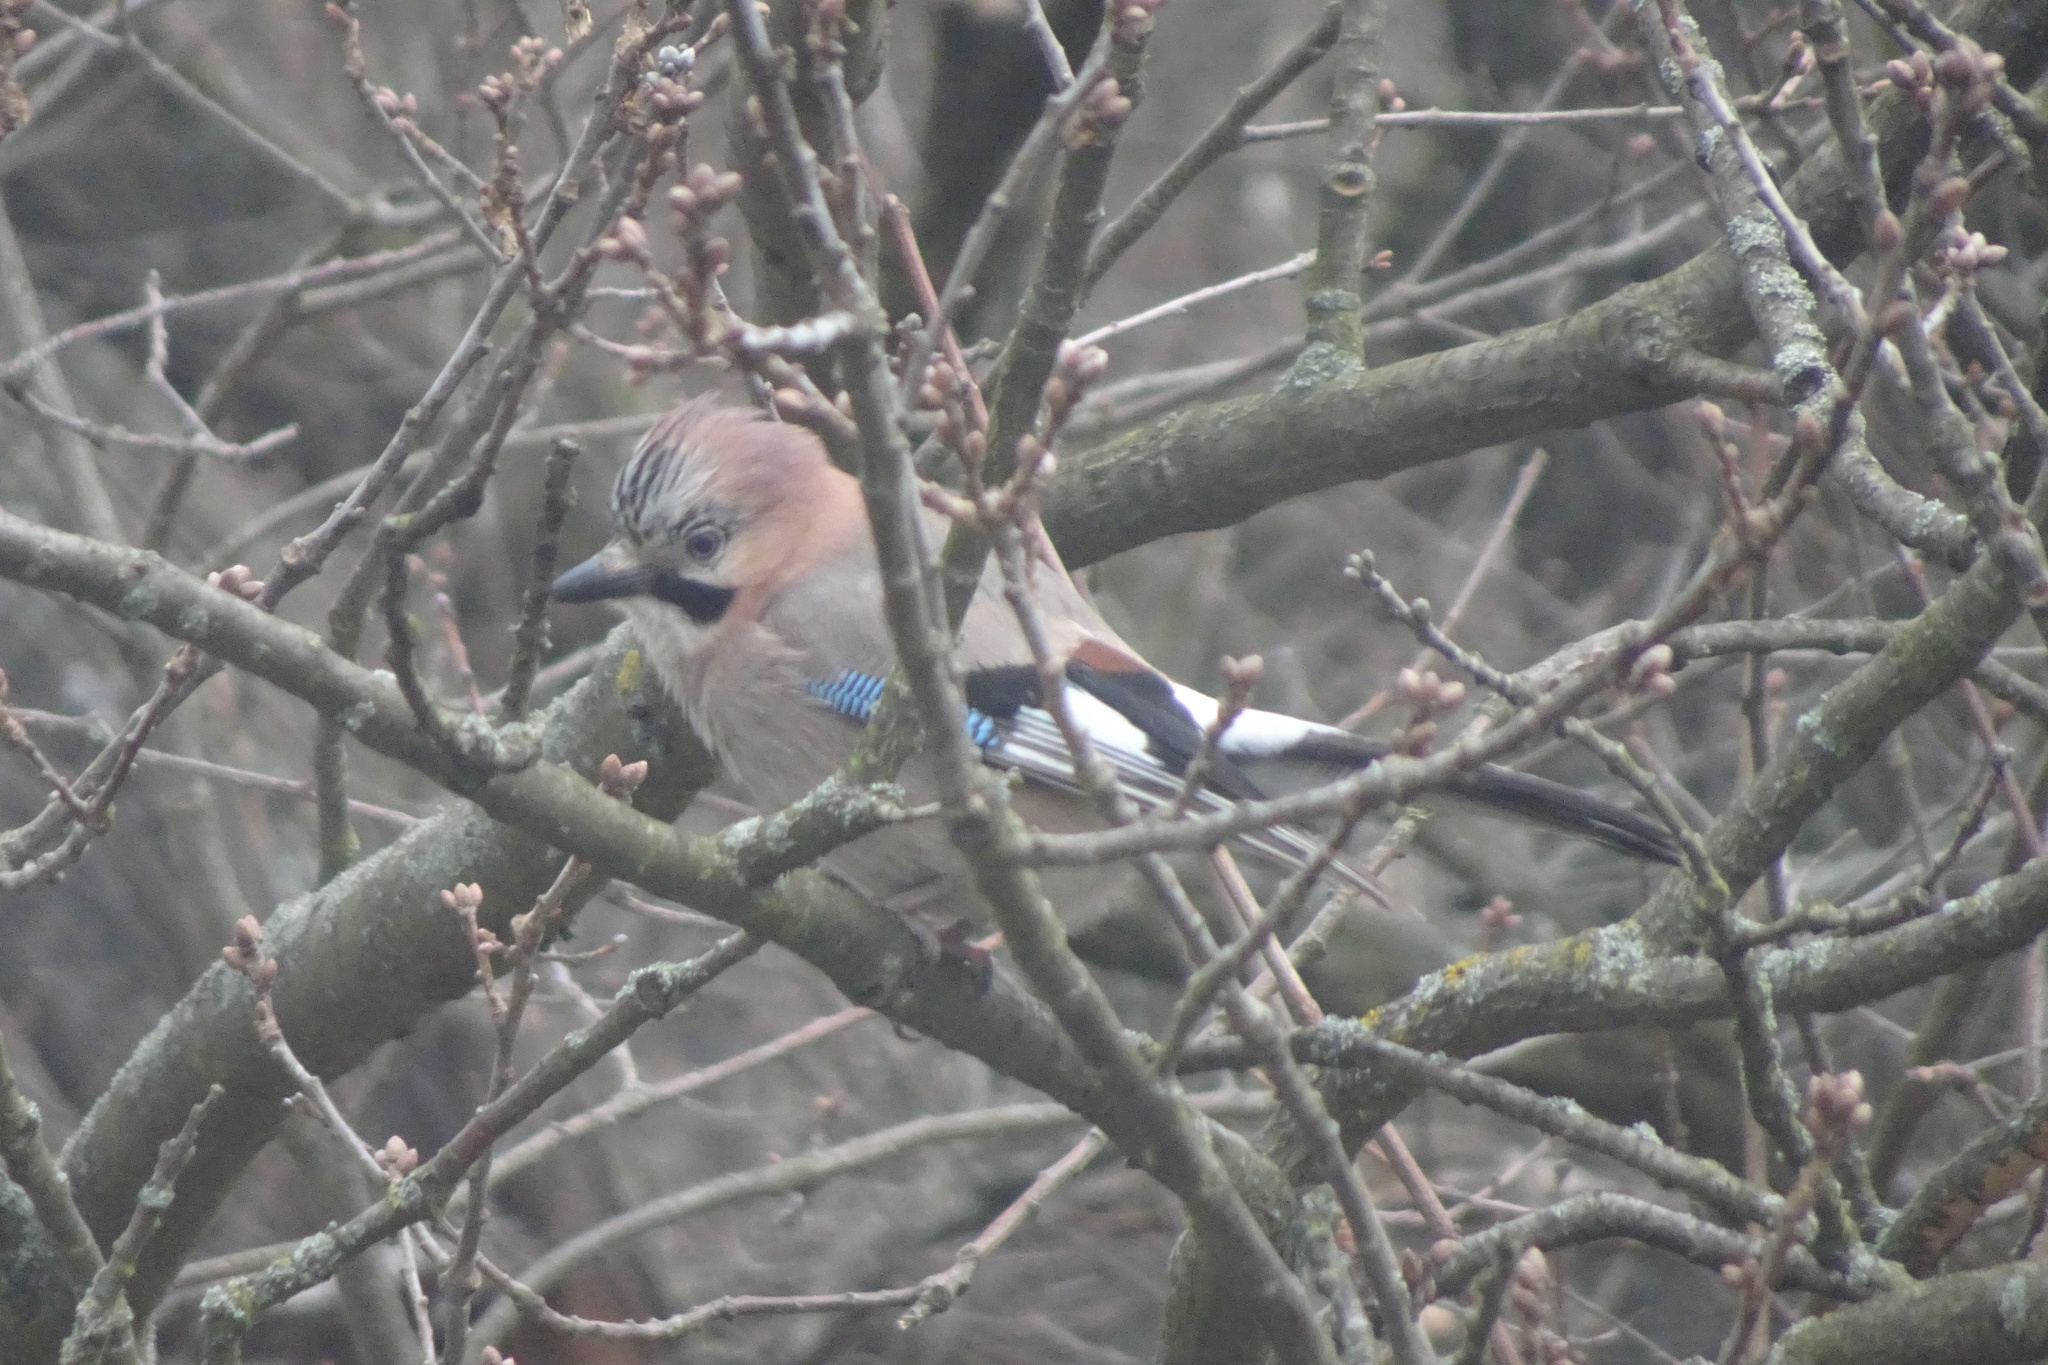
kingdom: Animalia
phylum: Chordata
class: Aves
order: Passeriformes
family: Corvidae
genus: Garrulus
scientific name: Garrulus glandarius
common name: Eurasian jay
